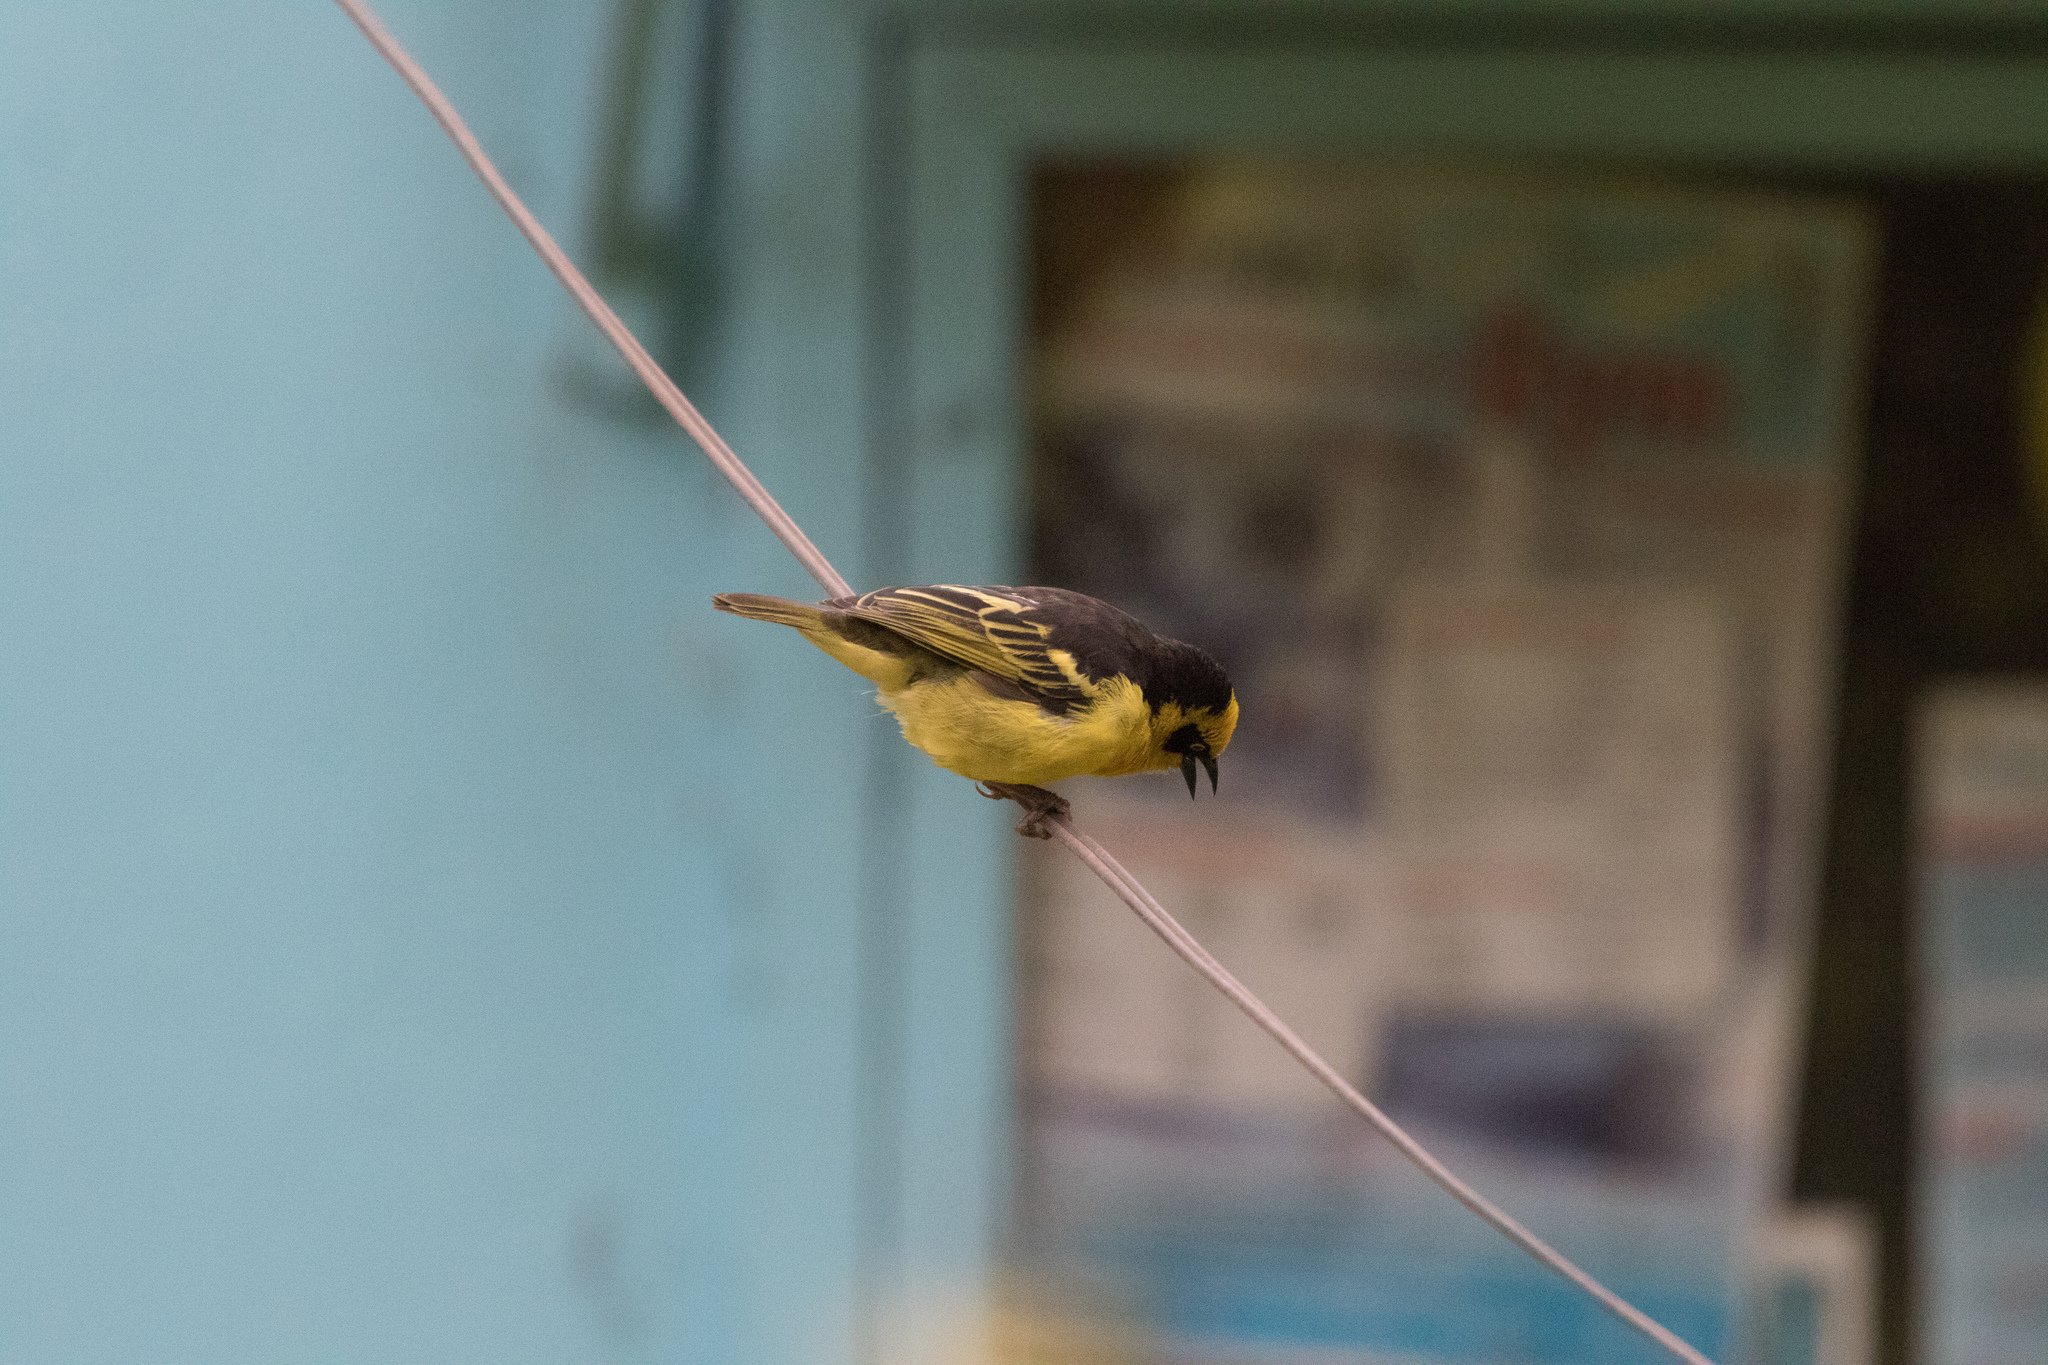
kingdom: Animalia
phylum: Chordata
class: Aves
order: Passeriformes
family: Ploceidae
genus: Ploceus
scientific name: Ploceus baglafecht
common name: Baglafecht weaver
